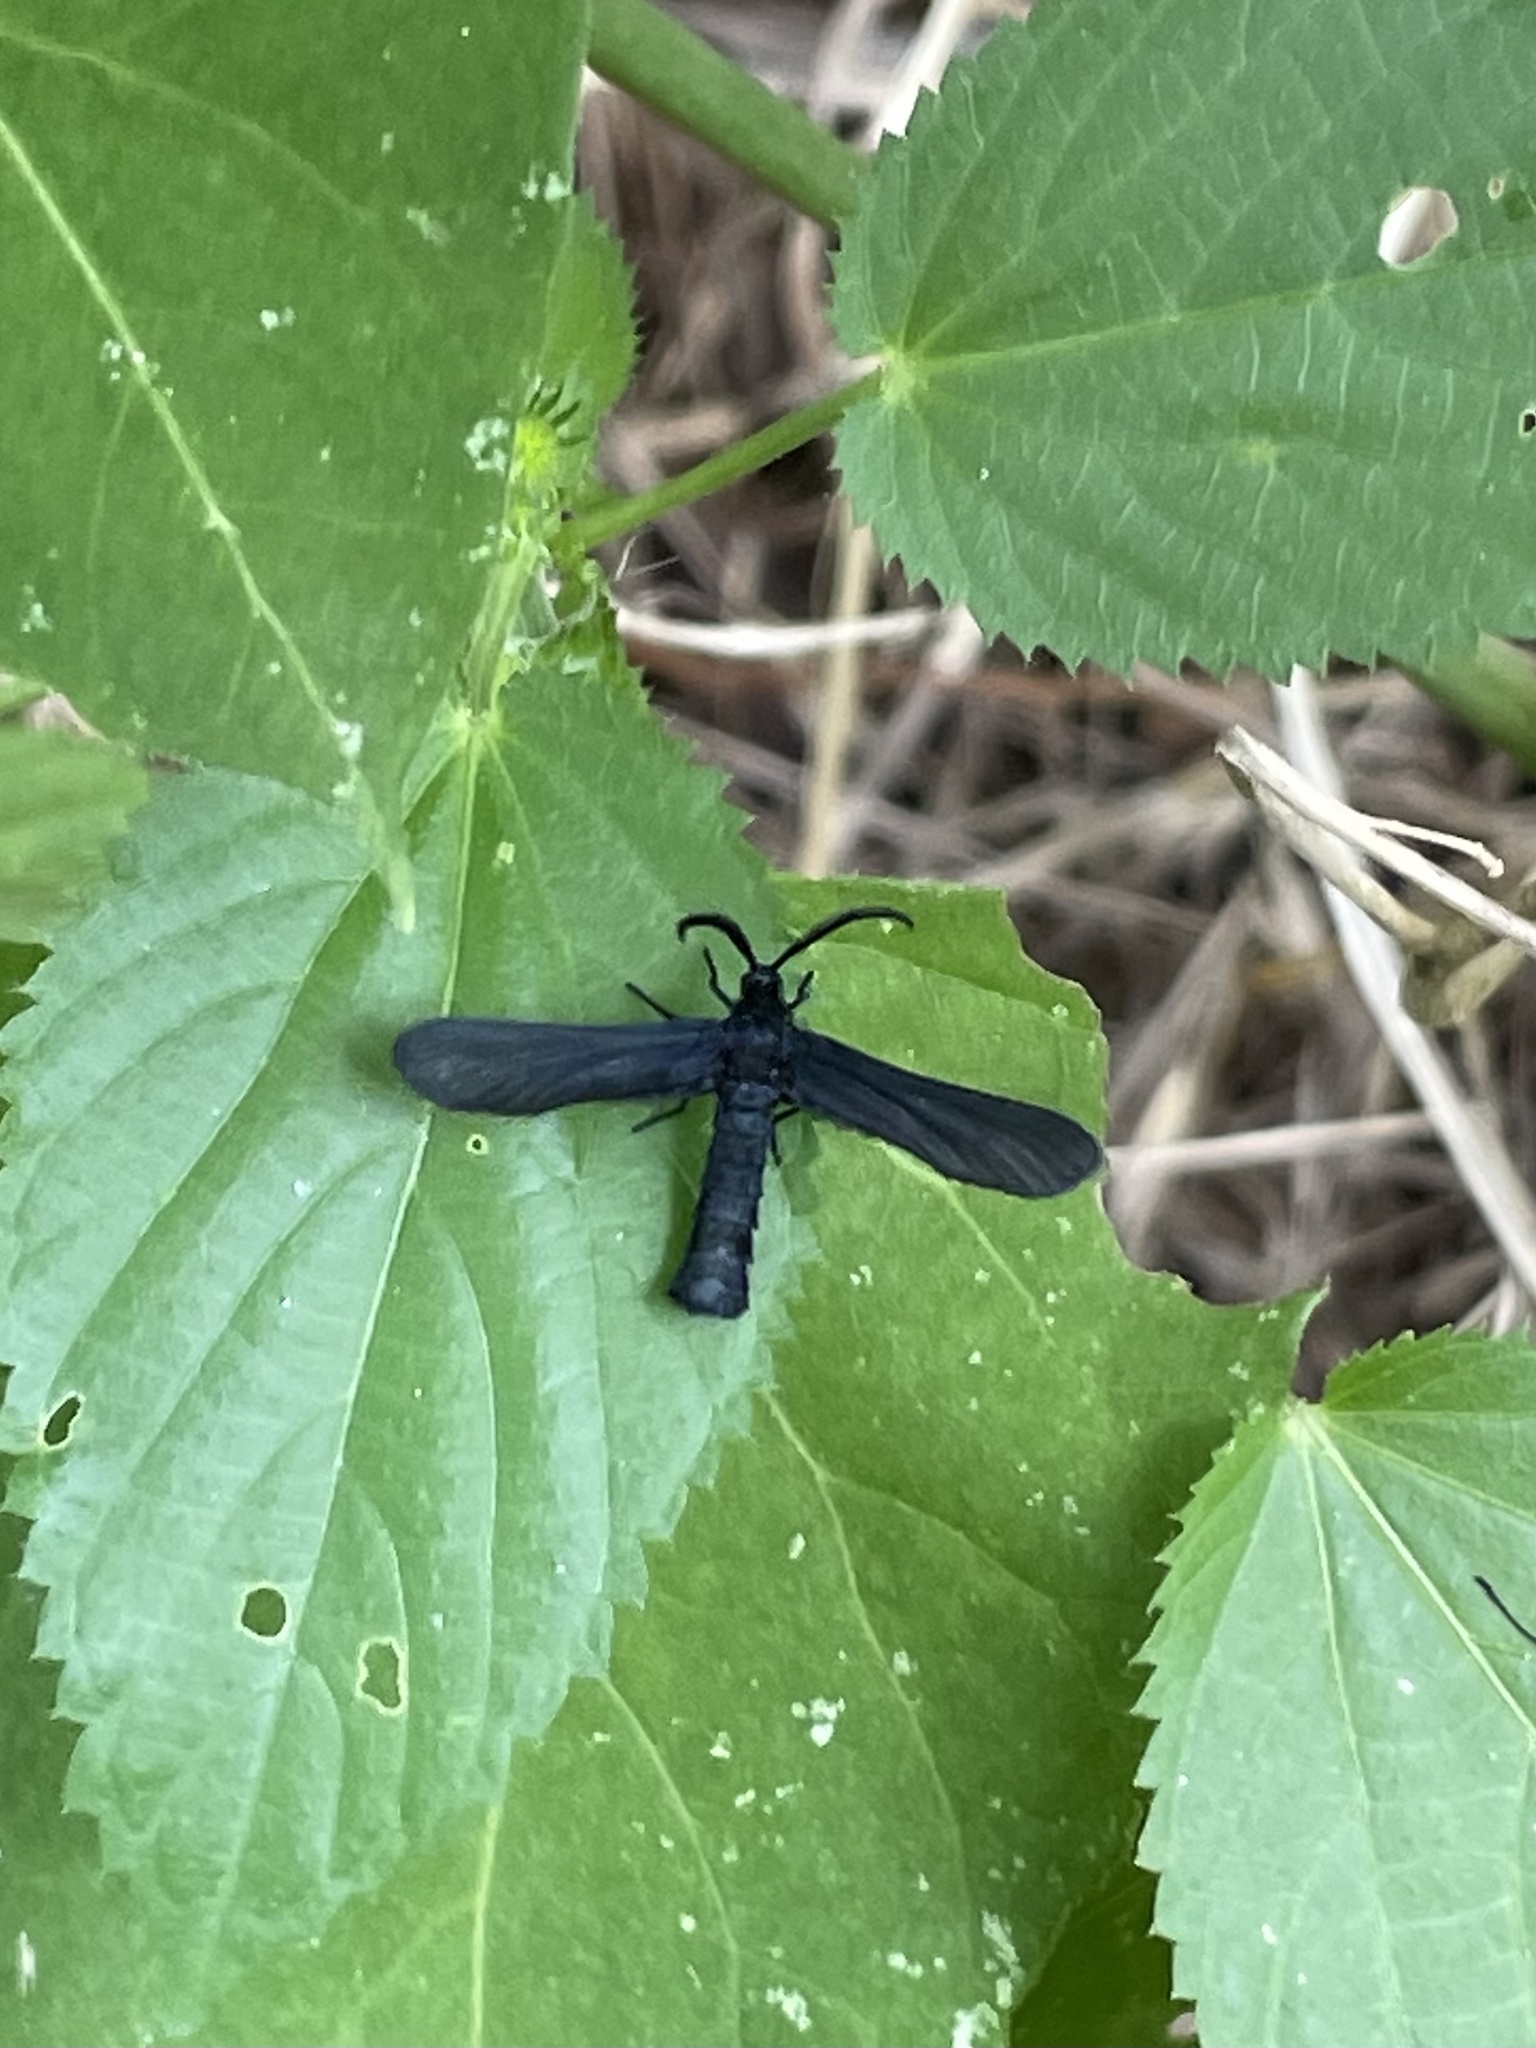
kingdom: Animalia
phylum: Arthropoda
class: Insecta
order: Lepidoptera
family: Zygaenidae
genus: Harrisina
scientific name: Harrisina coracina
